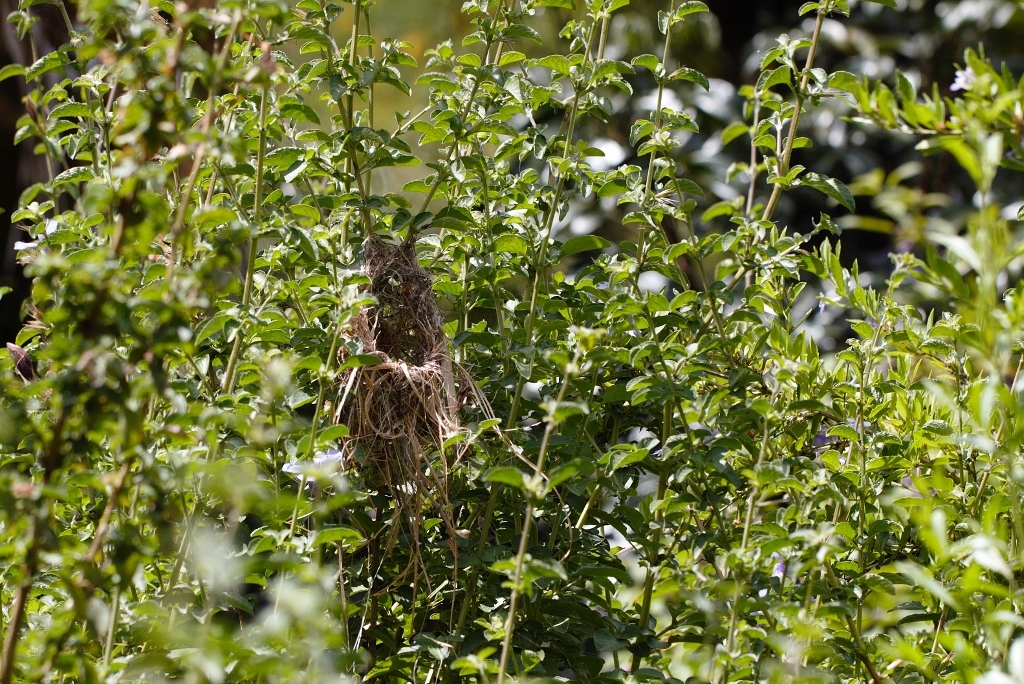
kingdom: Animalia
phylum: Chordata
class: Aves
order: Passeriformes
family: Nectariniidae
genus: Cinnyris
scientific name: Cinnyris venustus
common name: Variable sunbird
